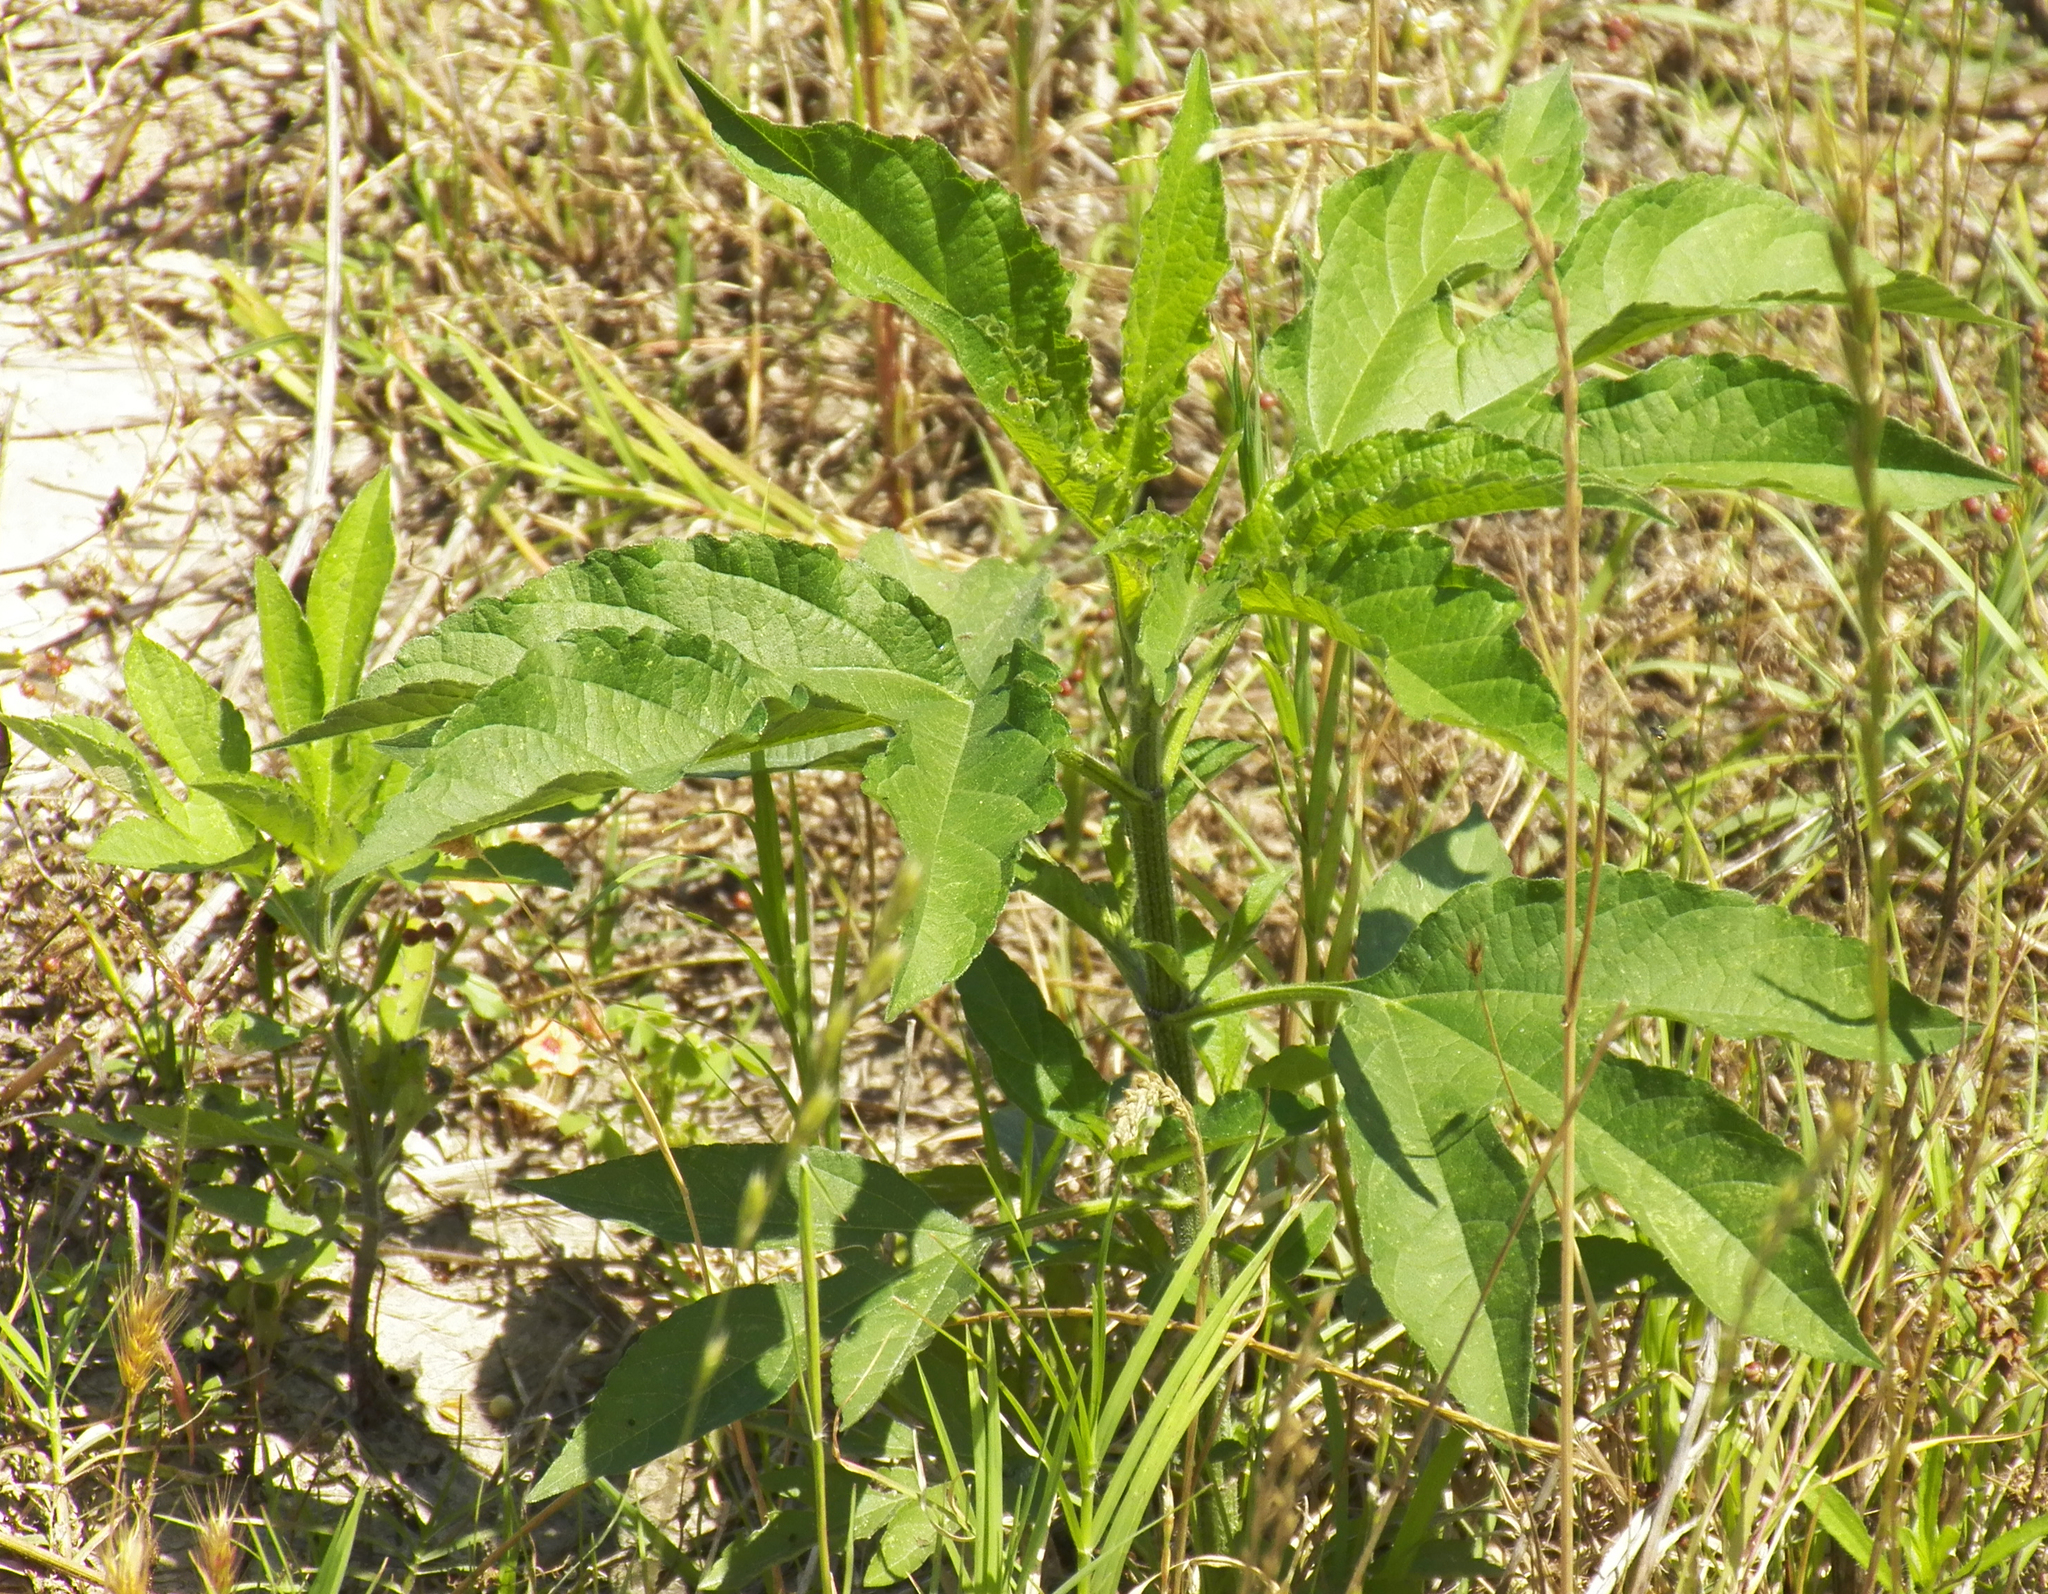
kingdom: Plantae
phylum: Tracheophyta
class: Magnoliopsida
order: Asterales
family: Asteraceae
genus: Ambrosia
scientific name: Ambrosia trifida
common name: Giant ragweed
